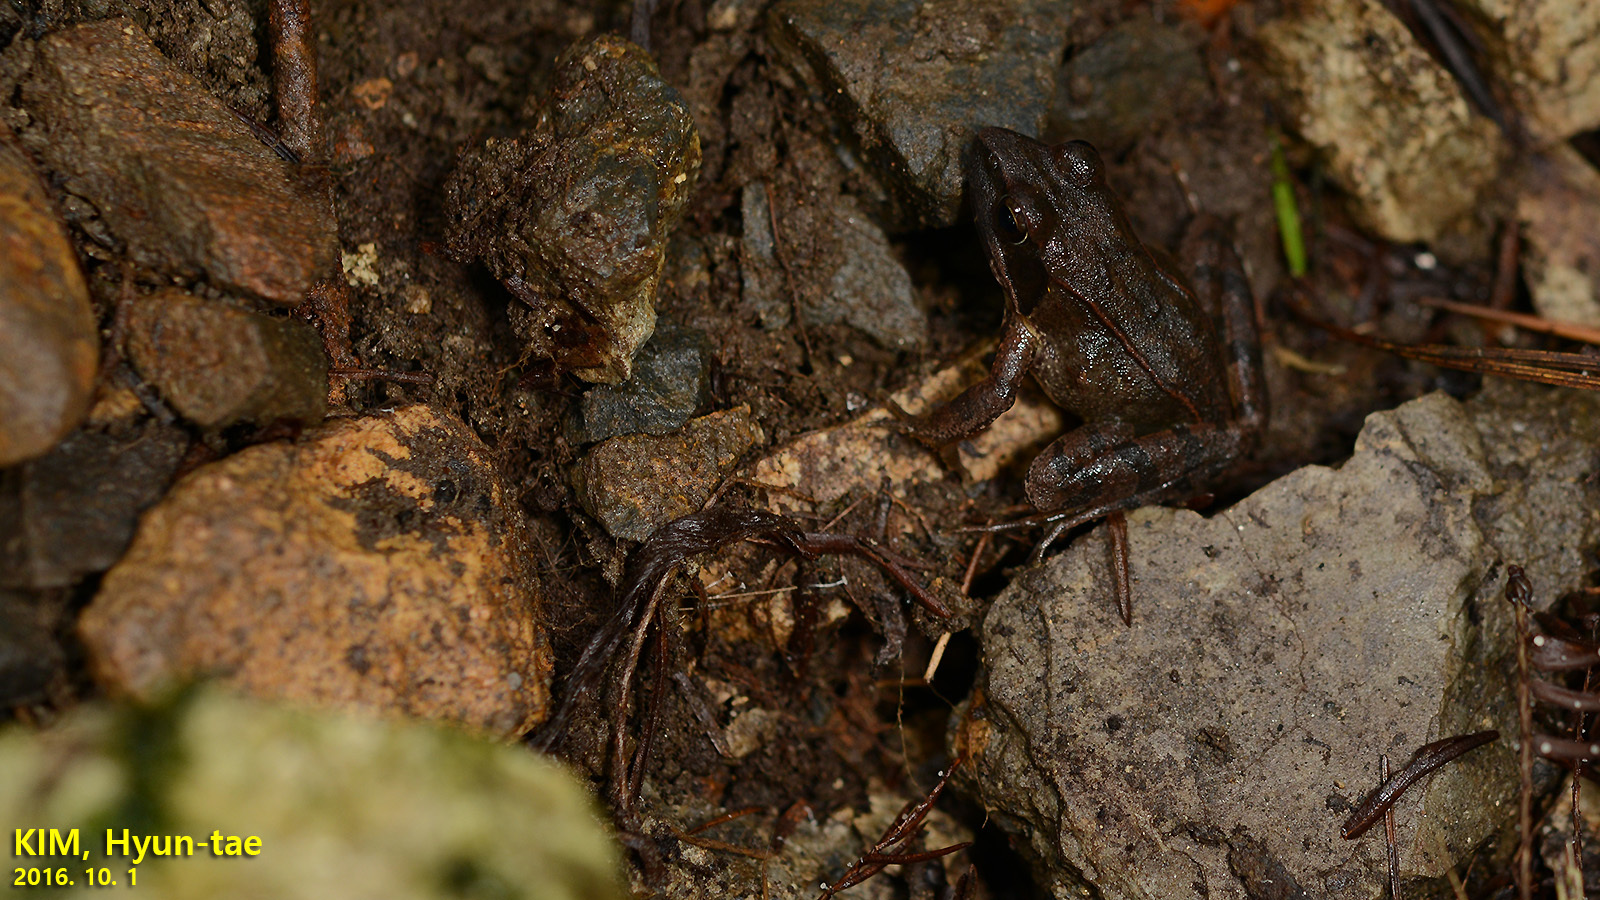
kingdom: Animalia
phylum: Chordata
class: Amphibia
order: Anura
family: Ranidae
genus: Rana
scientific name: Rana huanrenensis
